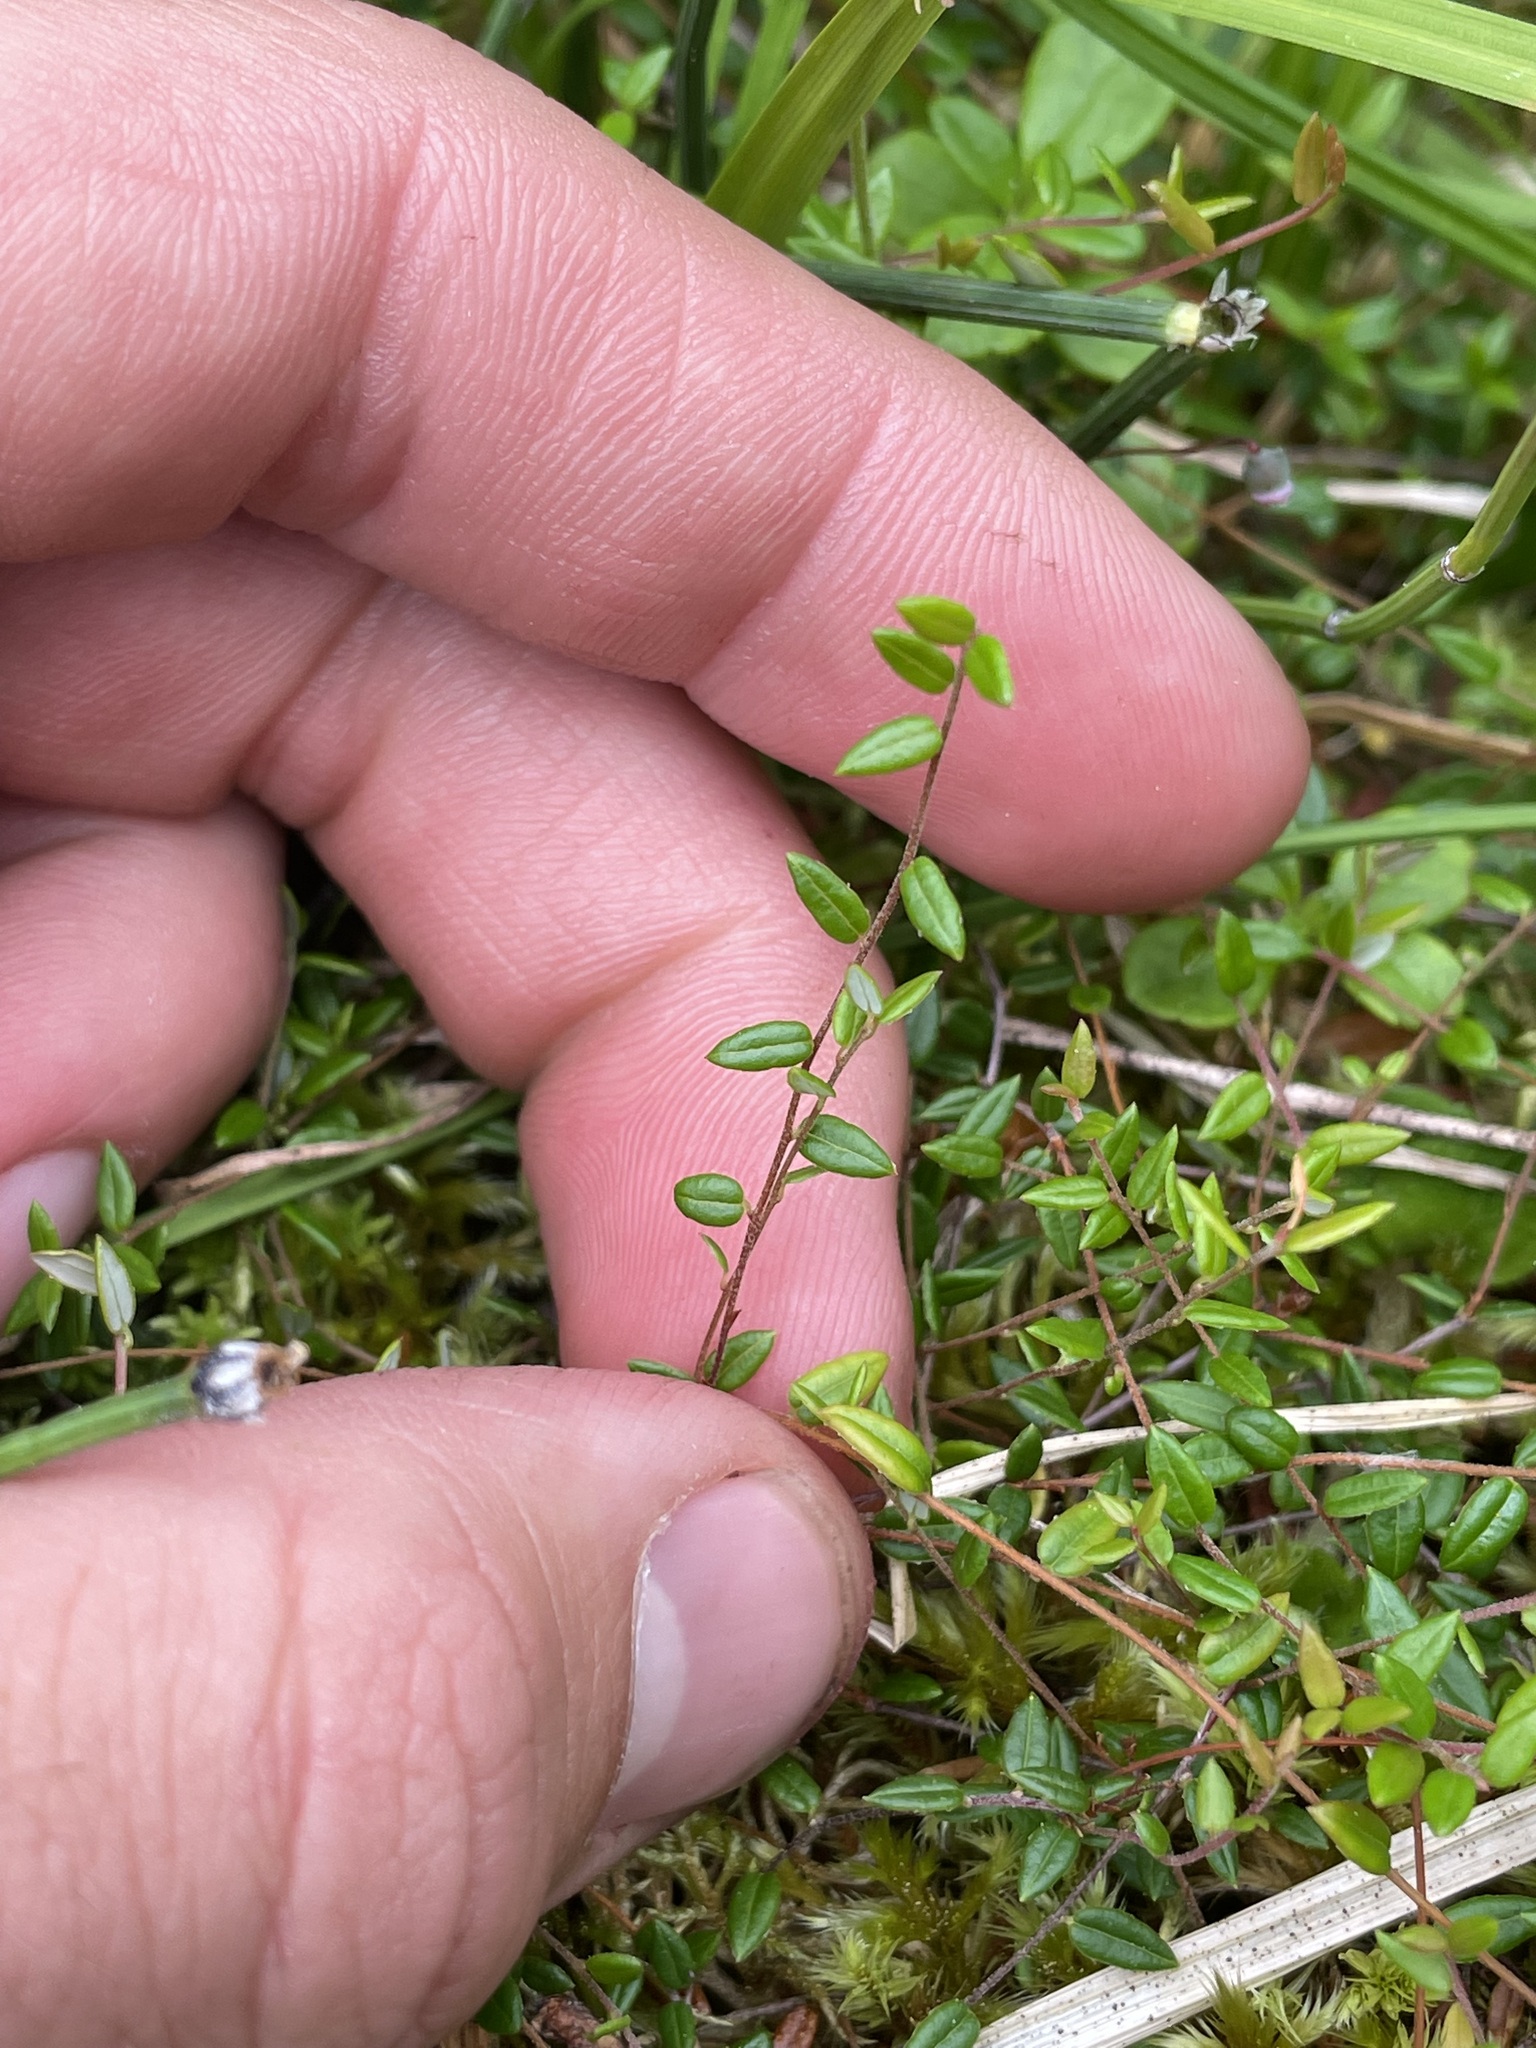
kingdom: Plantae
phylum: Tracheophyta
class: Magnoliopsida
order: Ericales
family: Ericaceae
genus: Vaccinium
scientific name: Vaccinium oxycoccos
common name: Cranberry
